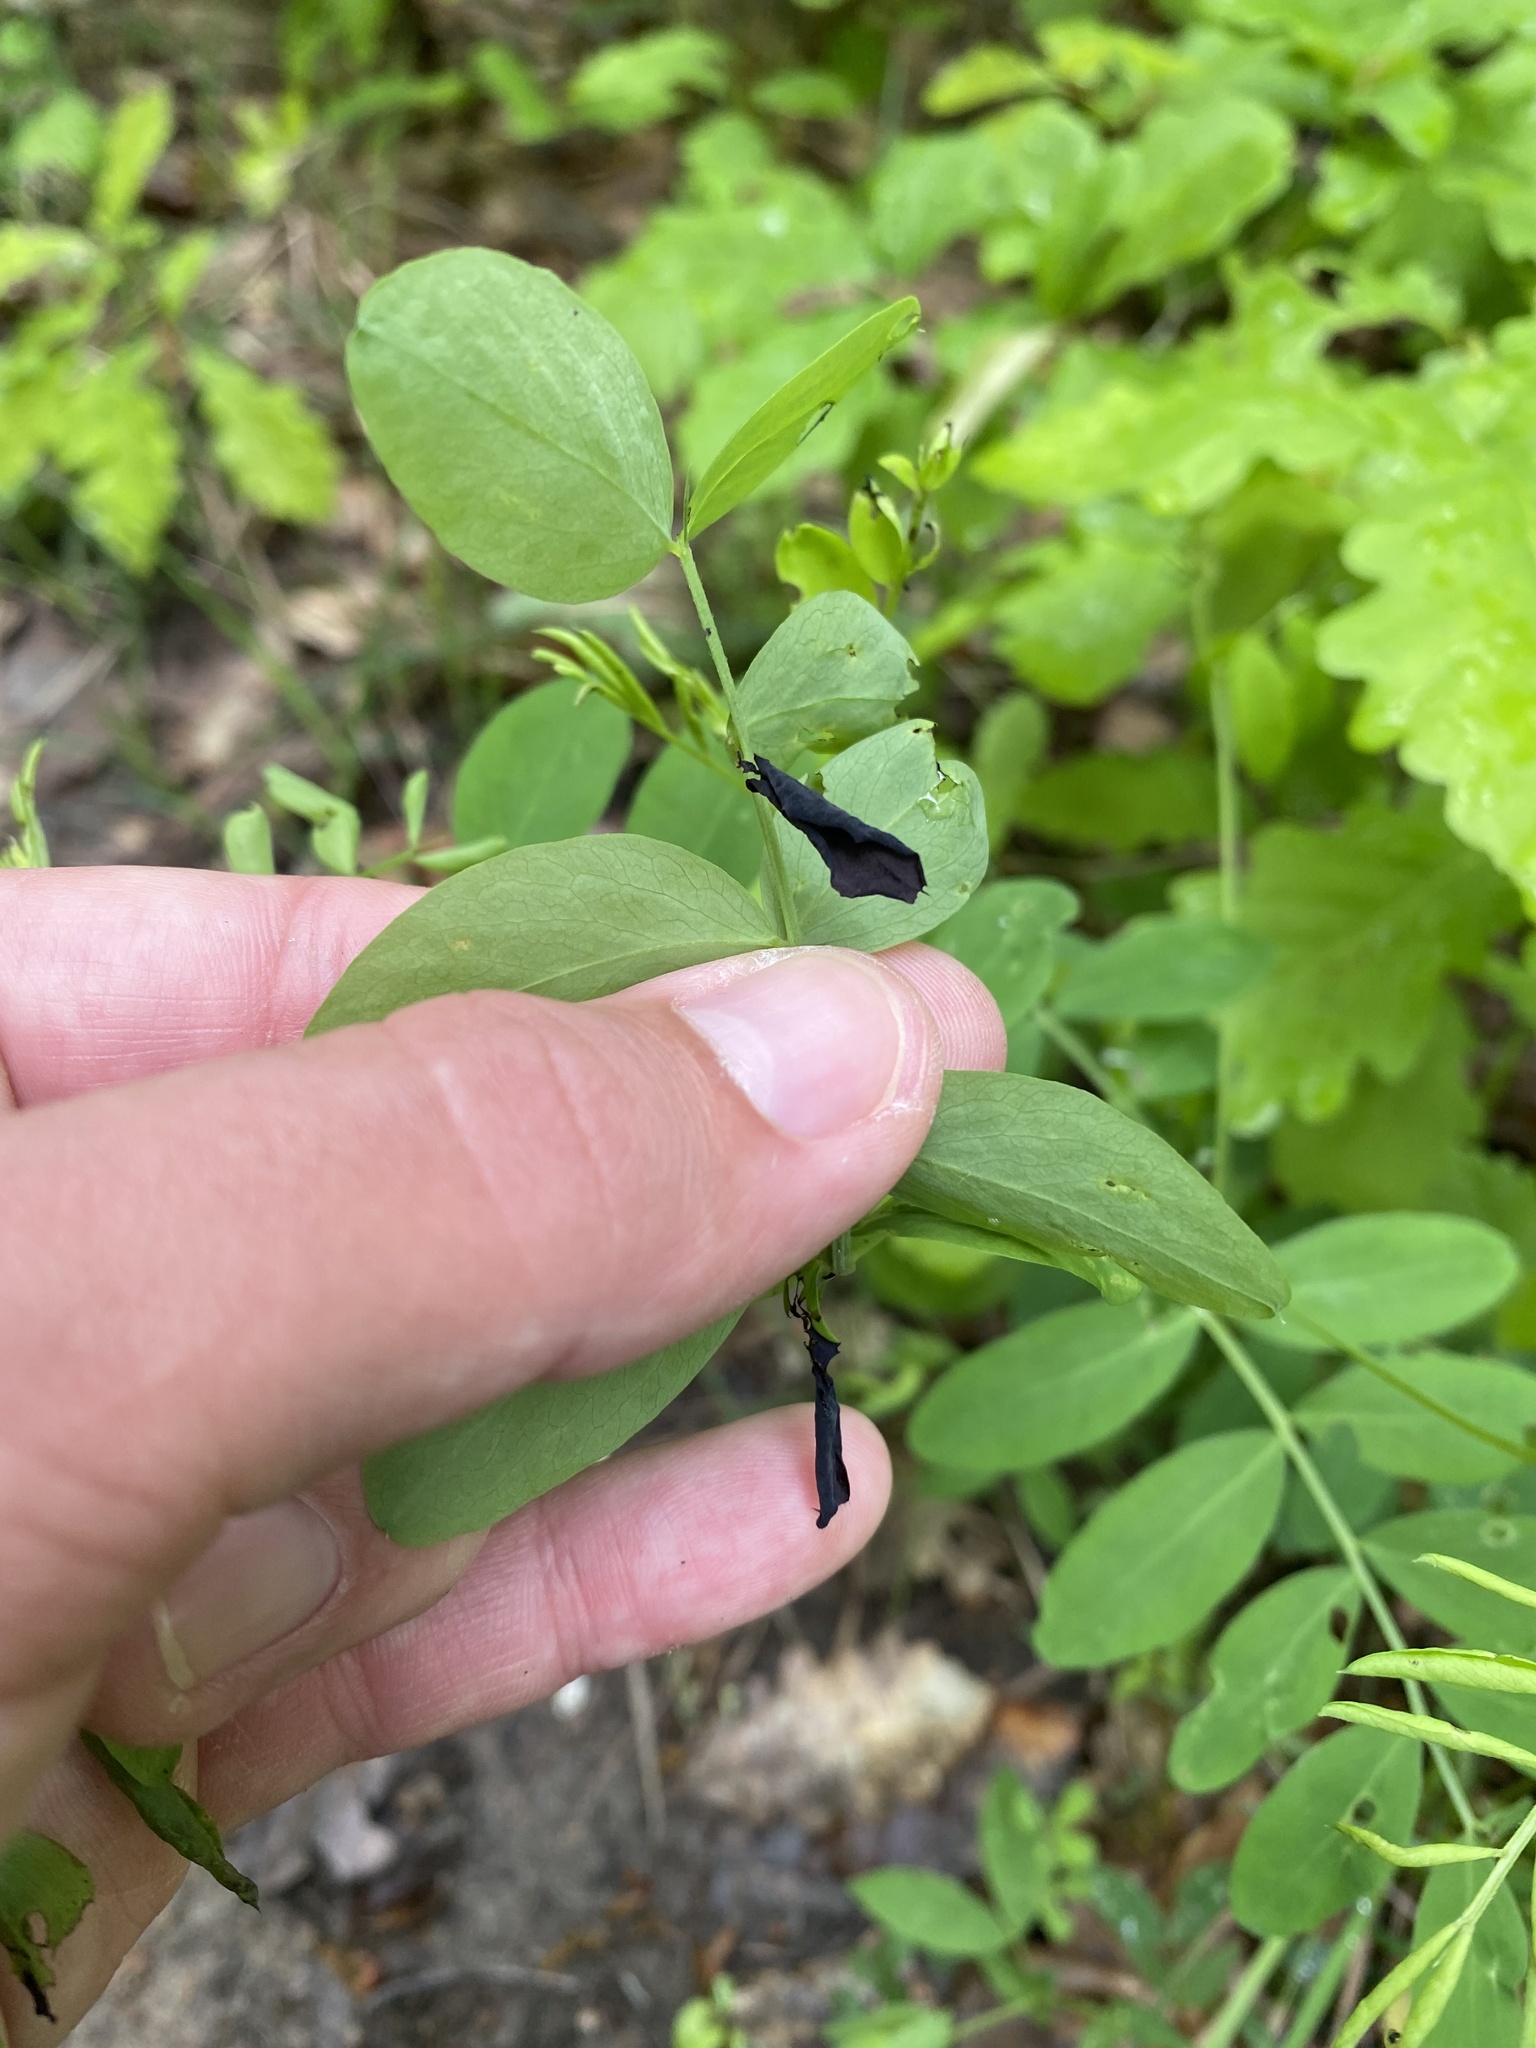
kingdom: Plantae
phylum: Tracheophyta
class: Magnoliopsida
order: Fabales
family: Fabaceae
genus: Lathyrus
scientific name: Lathyrus niger
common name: Black pea
